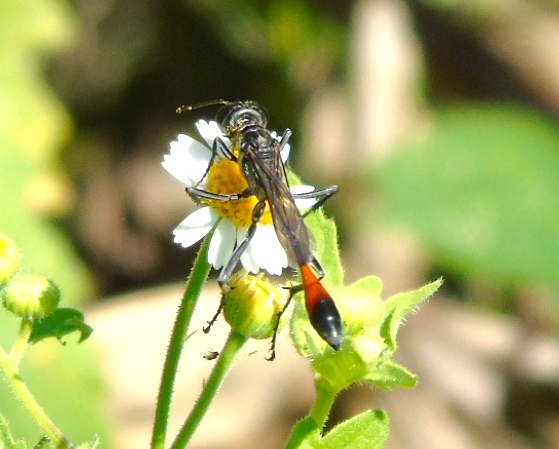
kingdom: Animalia
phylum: Arthropoda
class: Insecta
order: Hymenoptera
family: Sphecidae
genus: Ammophila
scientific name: Ammophila
